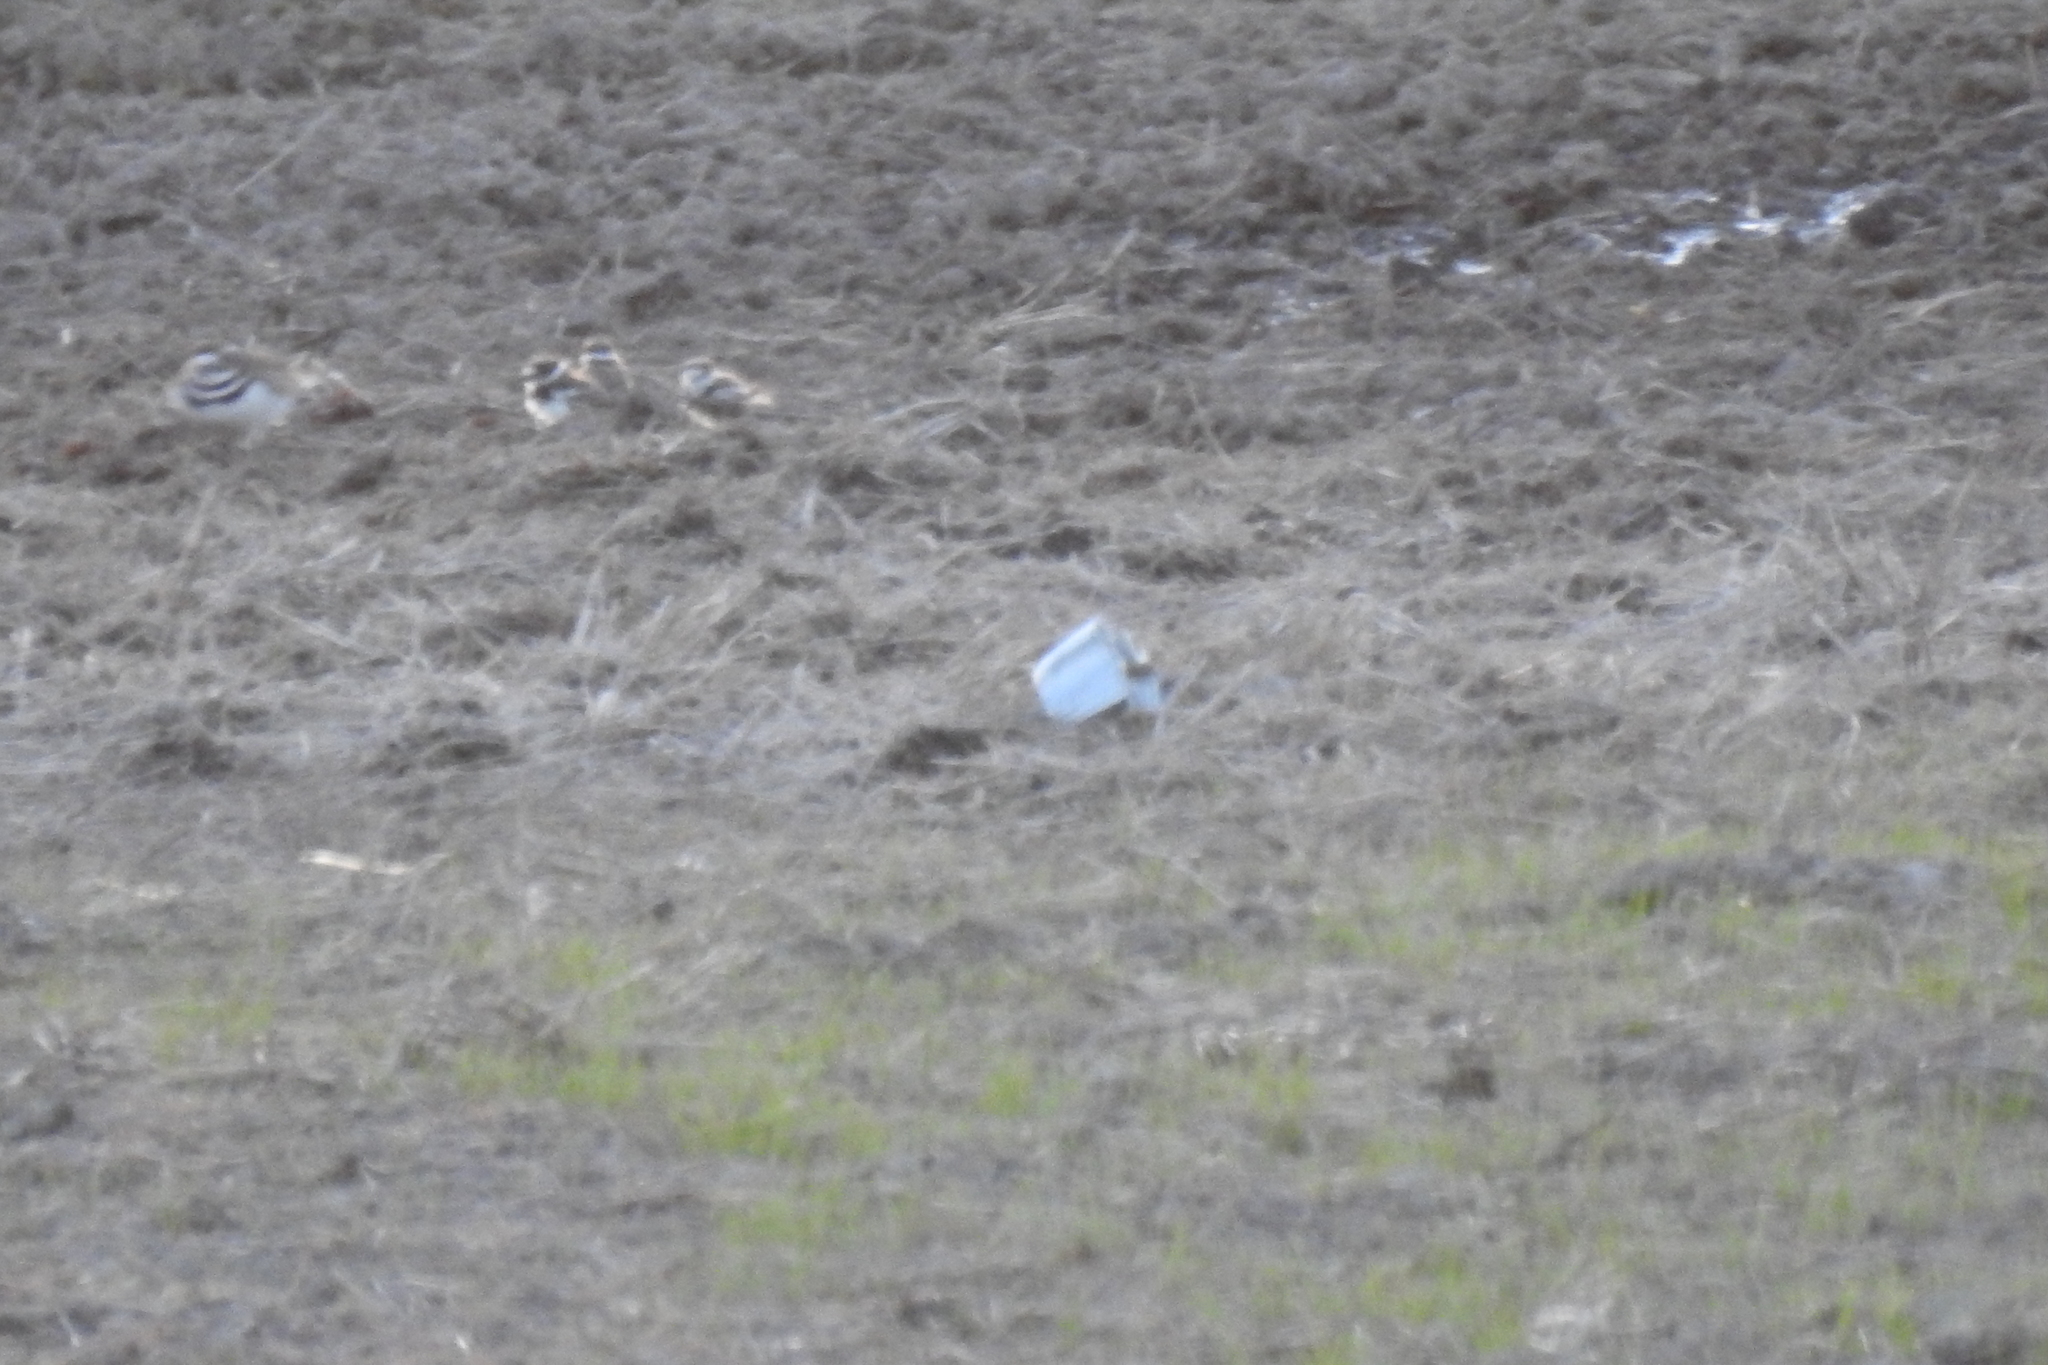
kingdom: Animalia
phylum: Chordata
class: Aves
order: Charadriiformes
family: Charadriidae
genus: Charadrius
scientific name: Charadrius vociferus
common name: Killdeer
